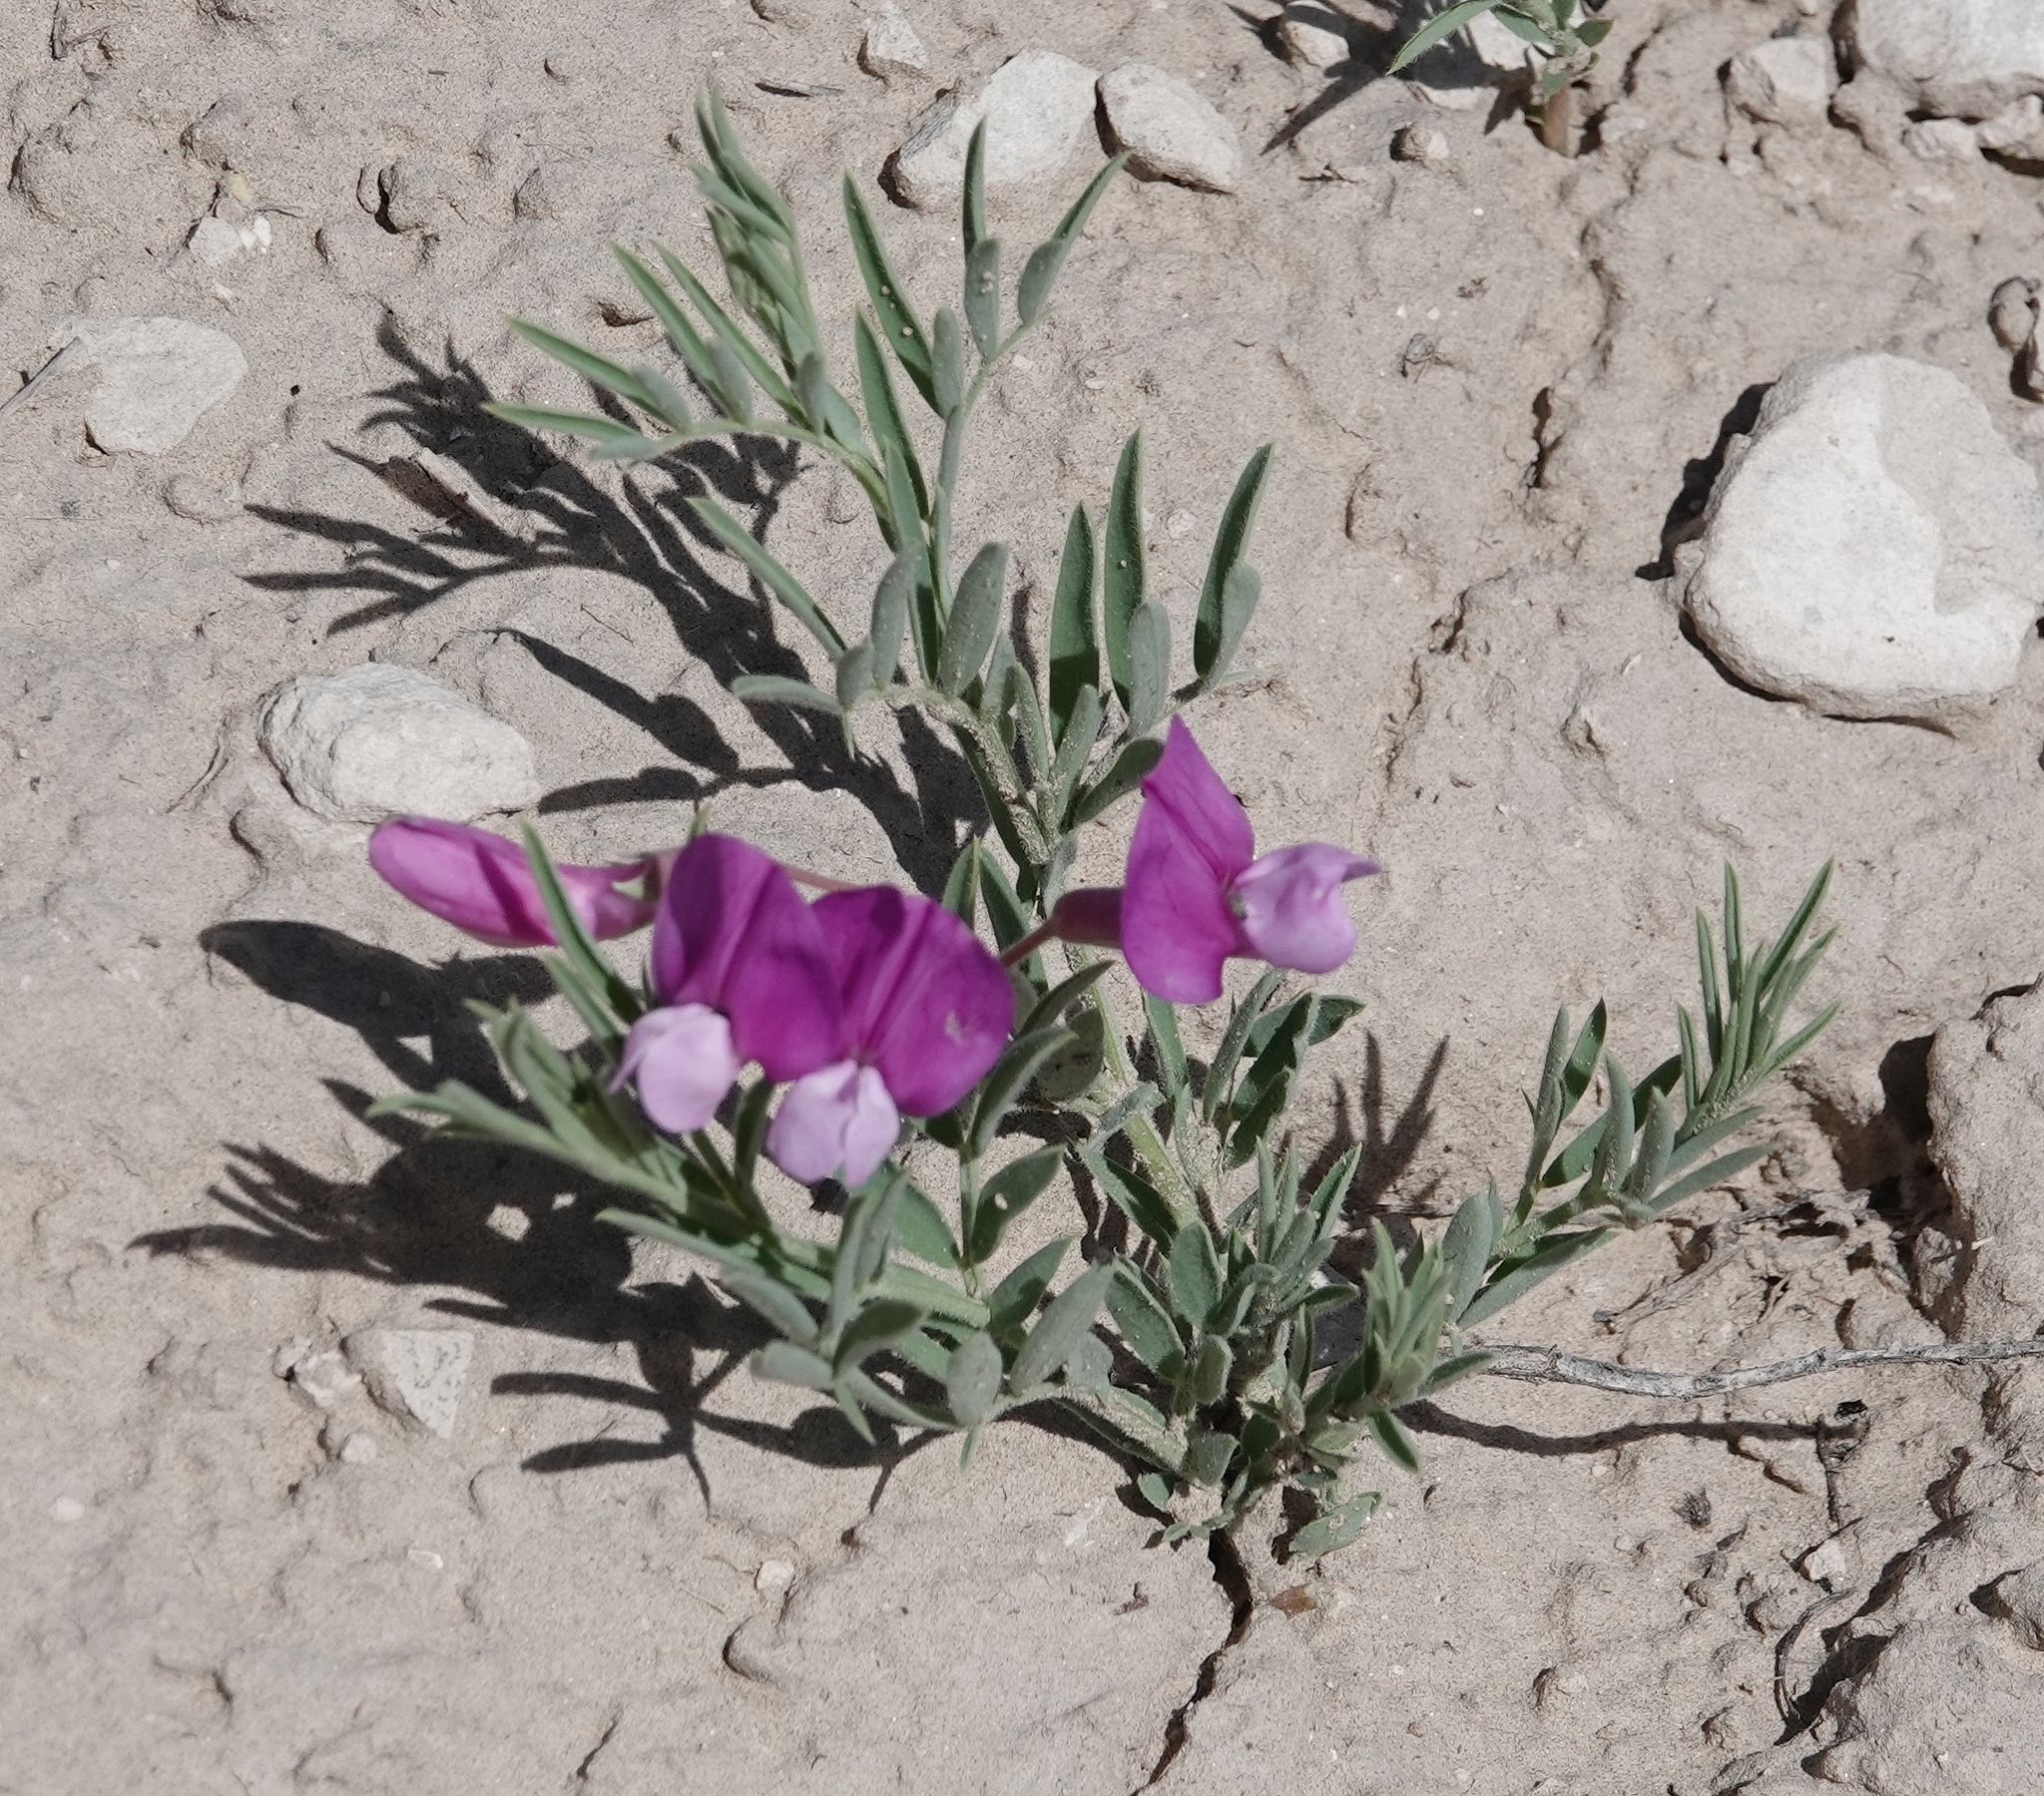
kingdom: Plantae
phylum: Tracheophyta
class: Magnoliopsida
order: Fabales
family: Fabaceae
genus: Lathyrus
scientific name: Lathyrus
